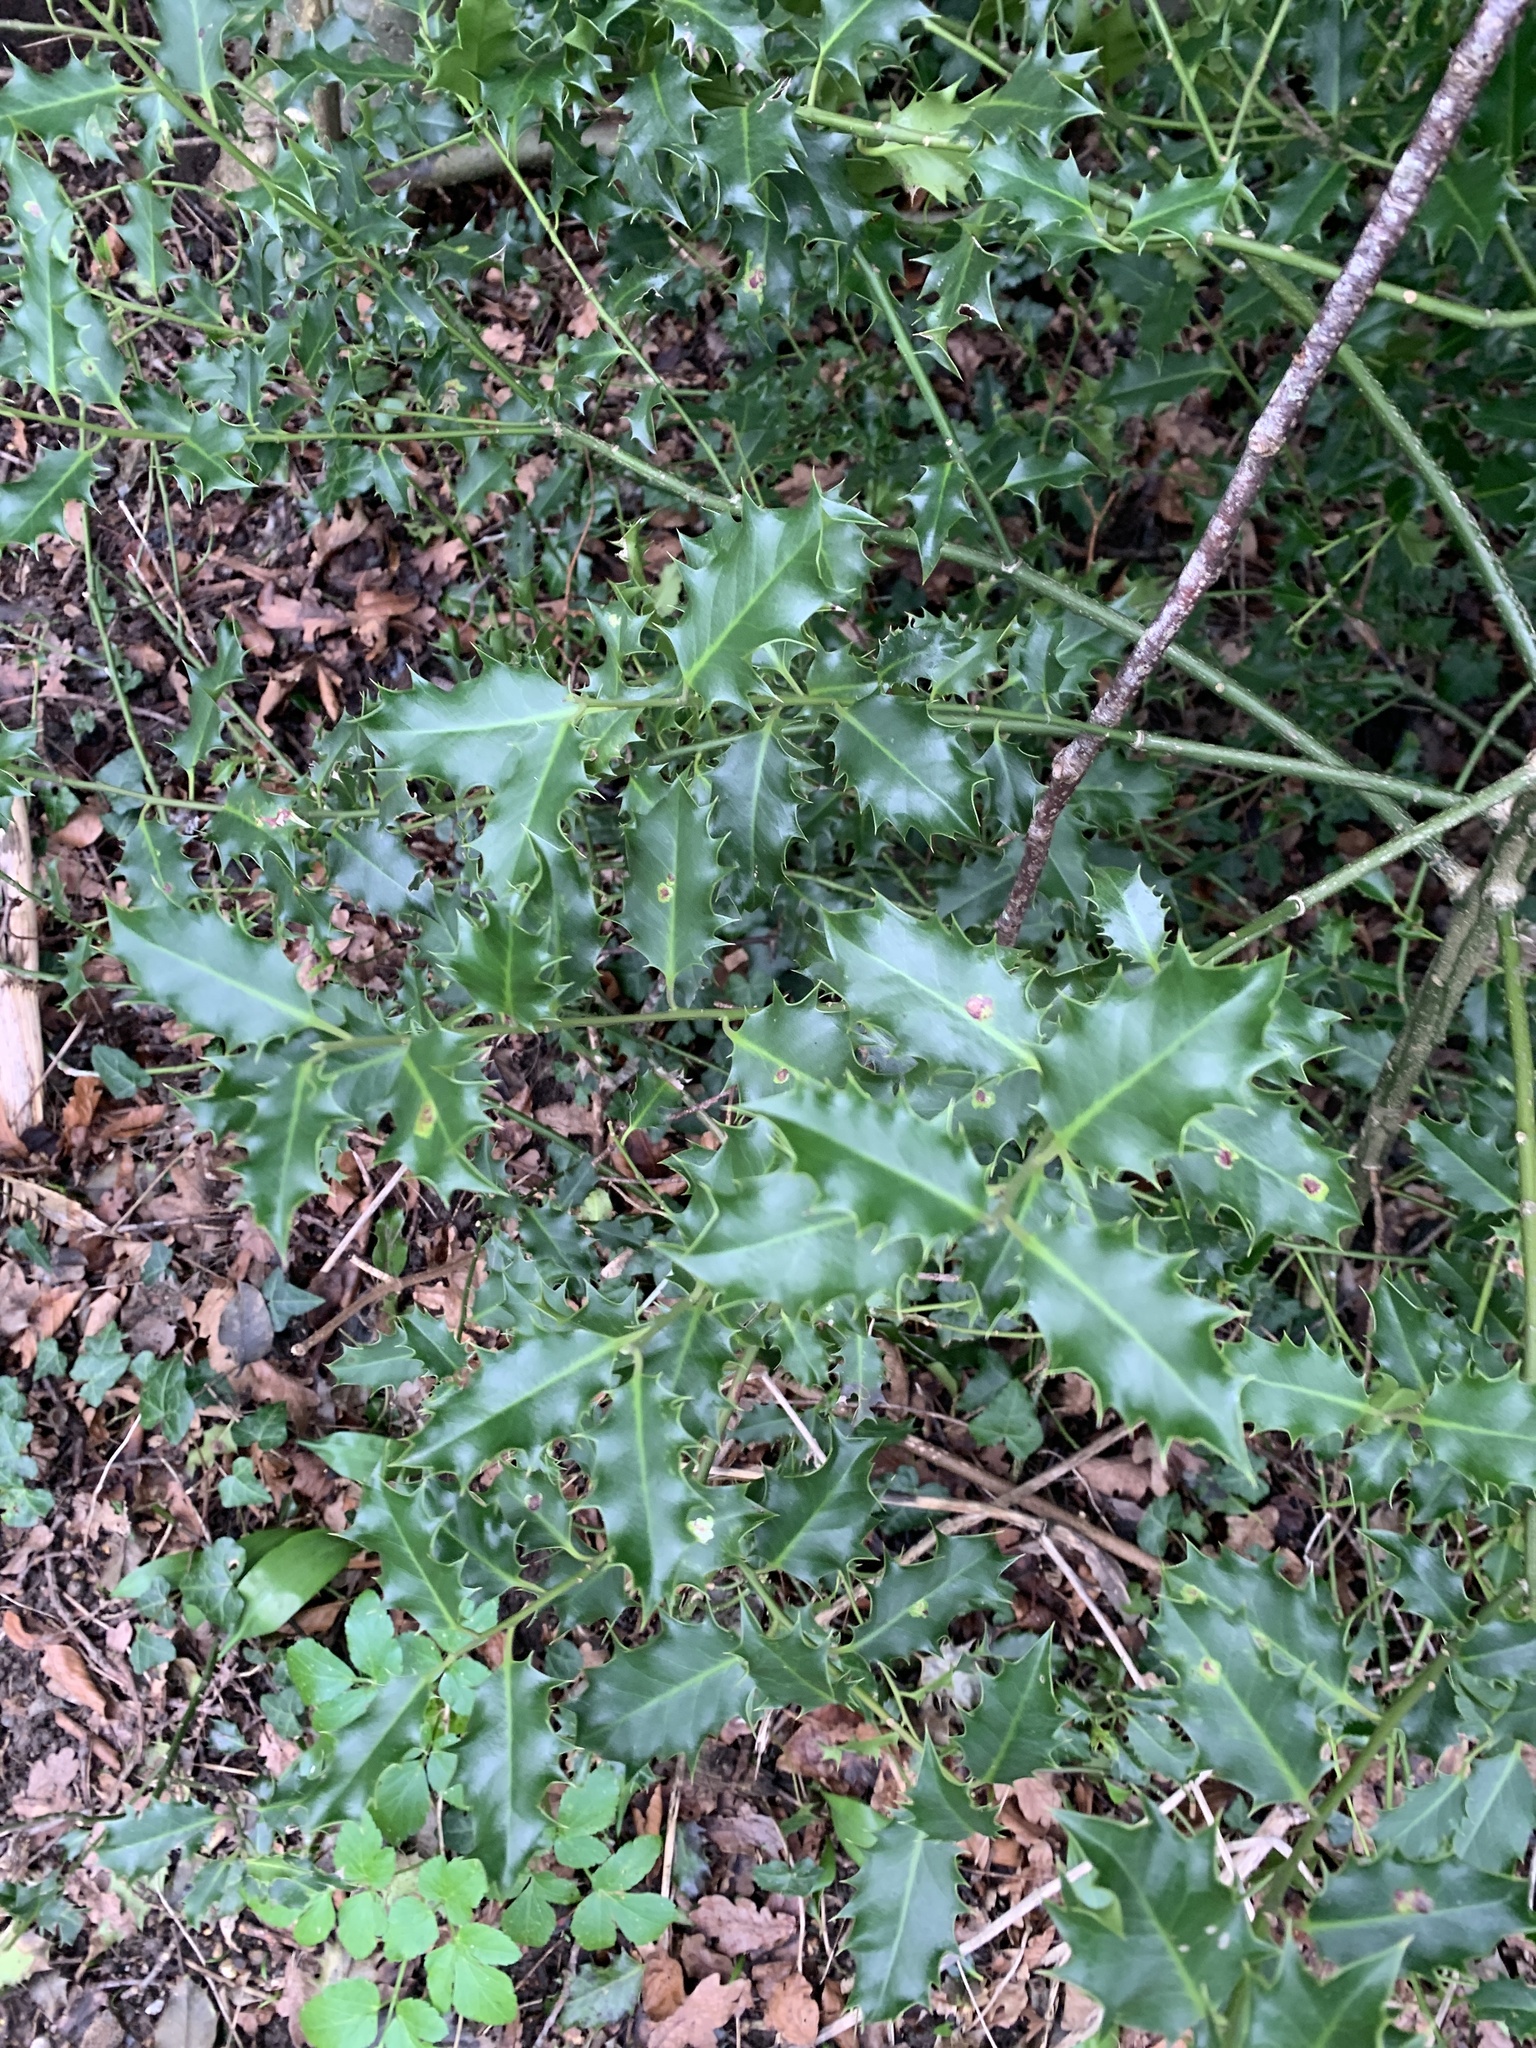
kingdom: Plantae
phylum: Tracheophyta
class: Magnoliopsida
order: Aquifoliales
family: Aquifoliaceae
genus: Ilex
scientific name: Ilex aquifolium
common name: English holly
